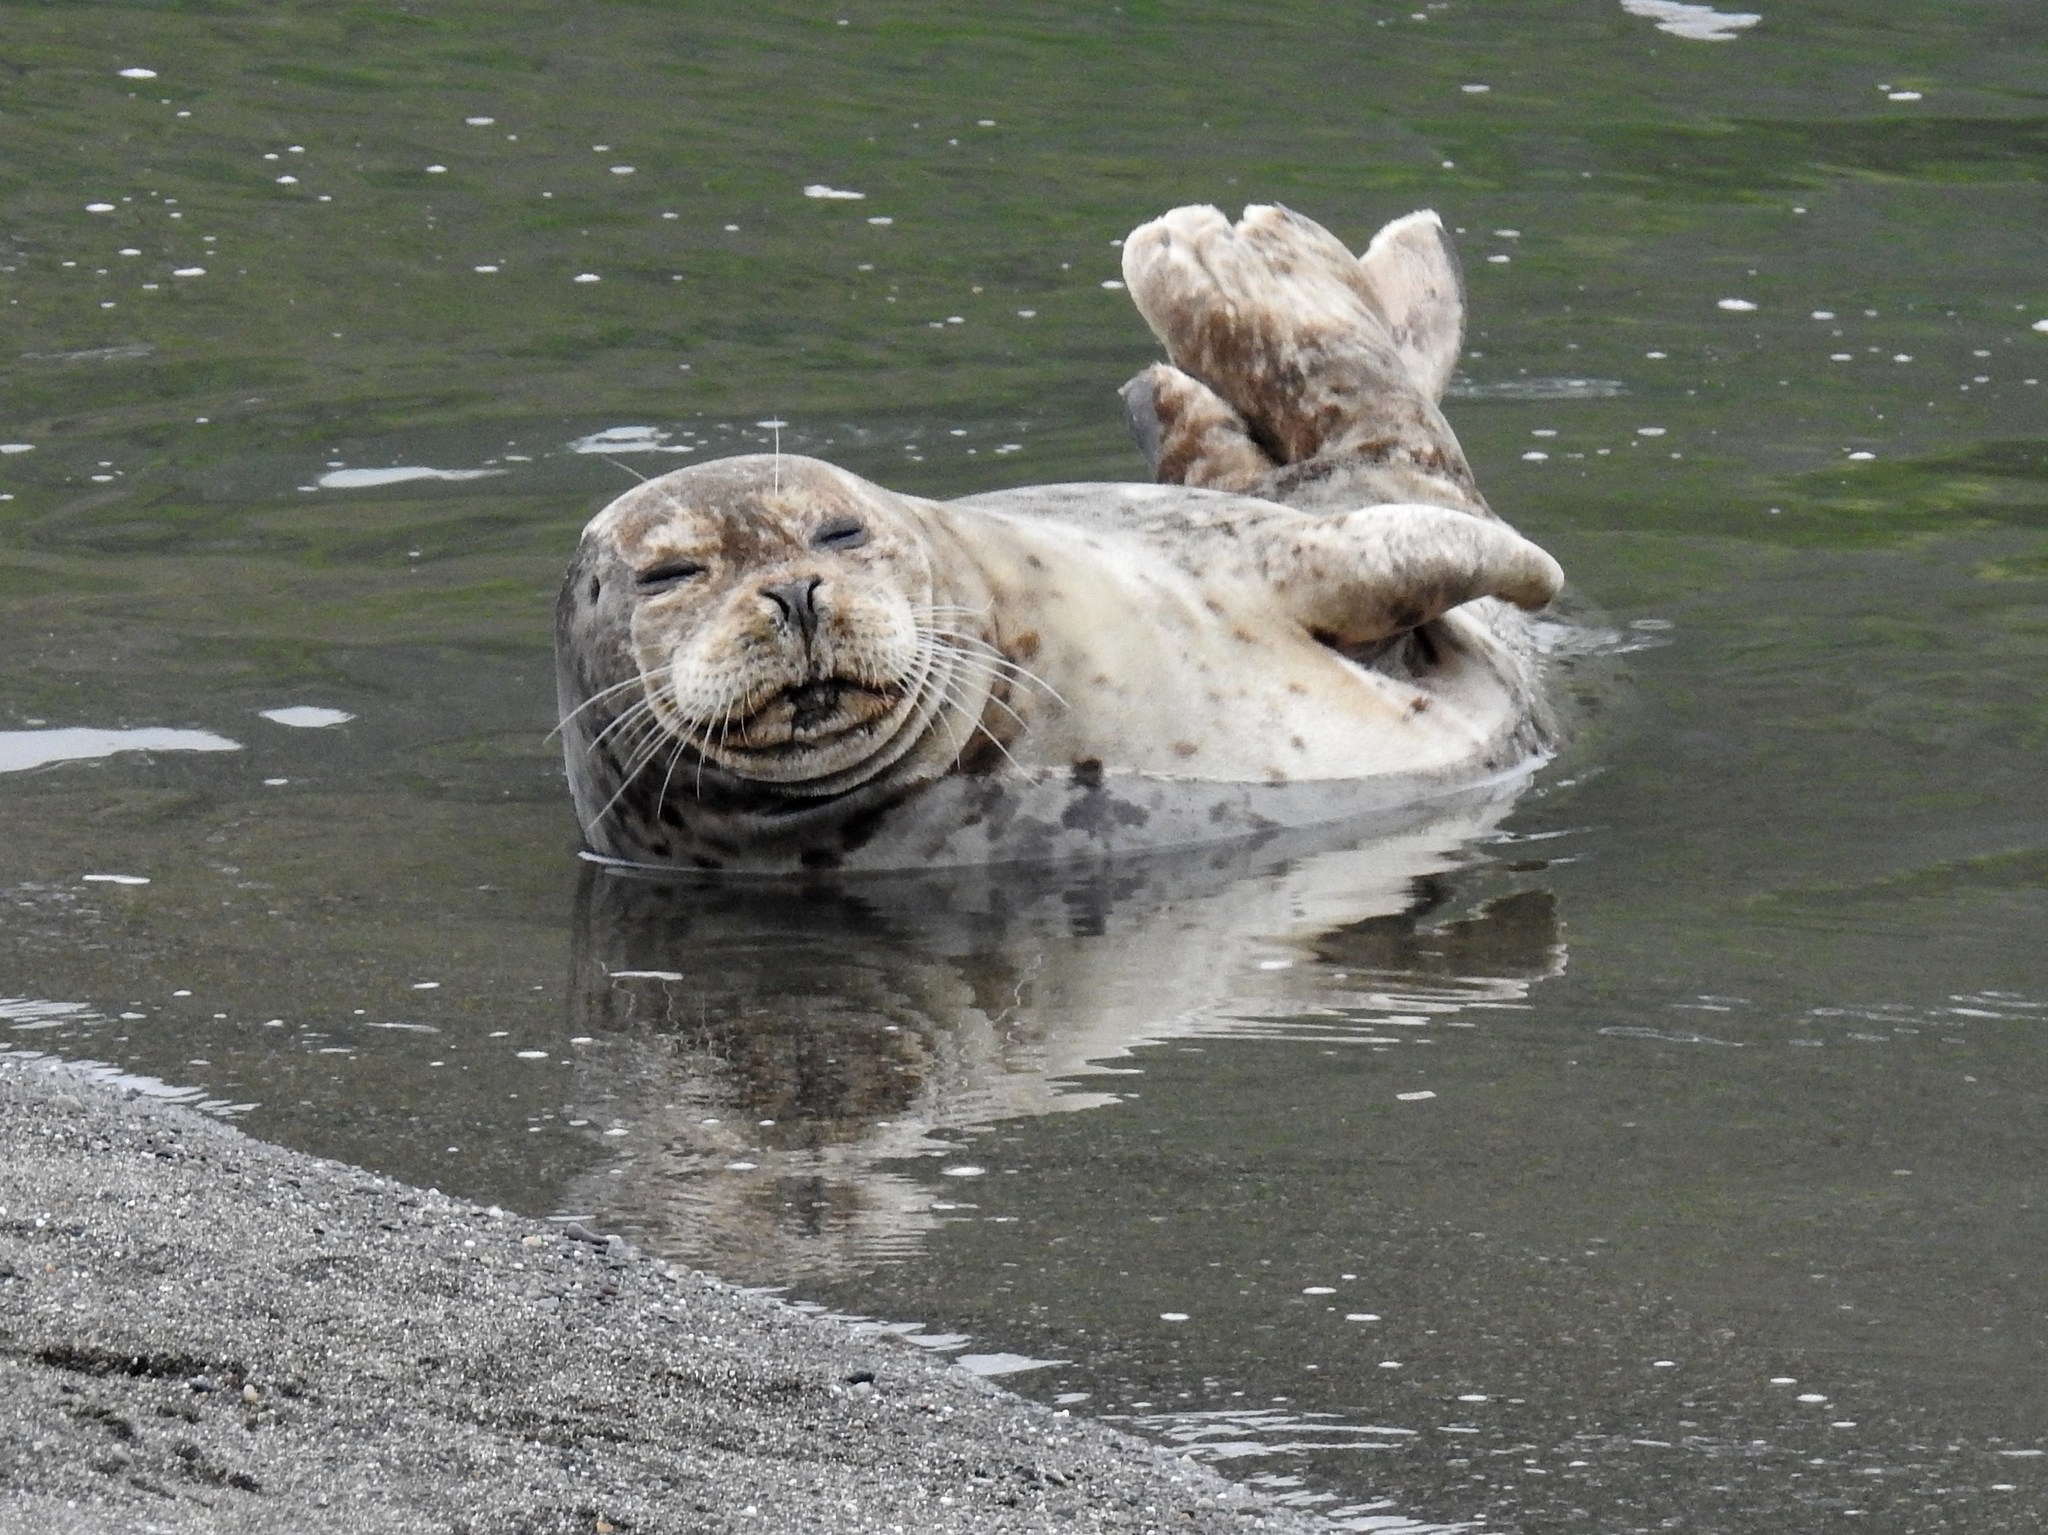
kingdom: Animalia
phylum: Chordata
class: Mammalia
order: Carnivora
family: Phocidae
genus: Phoca
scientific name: Phoca vitulina
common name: Harbor seal
